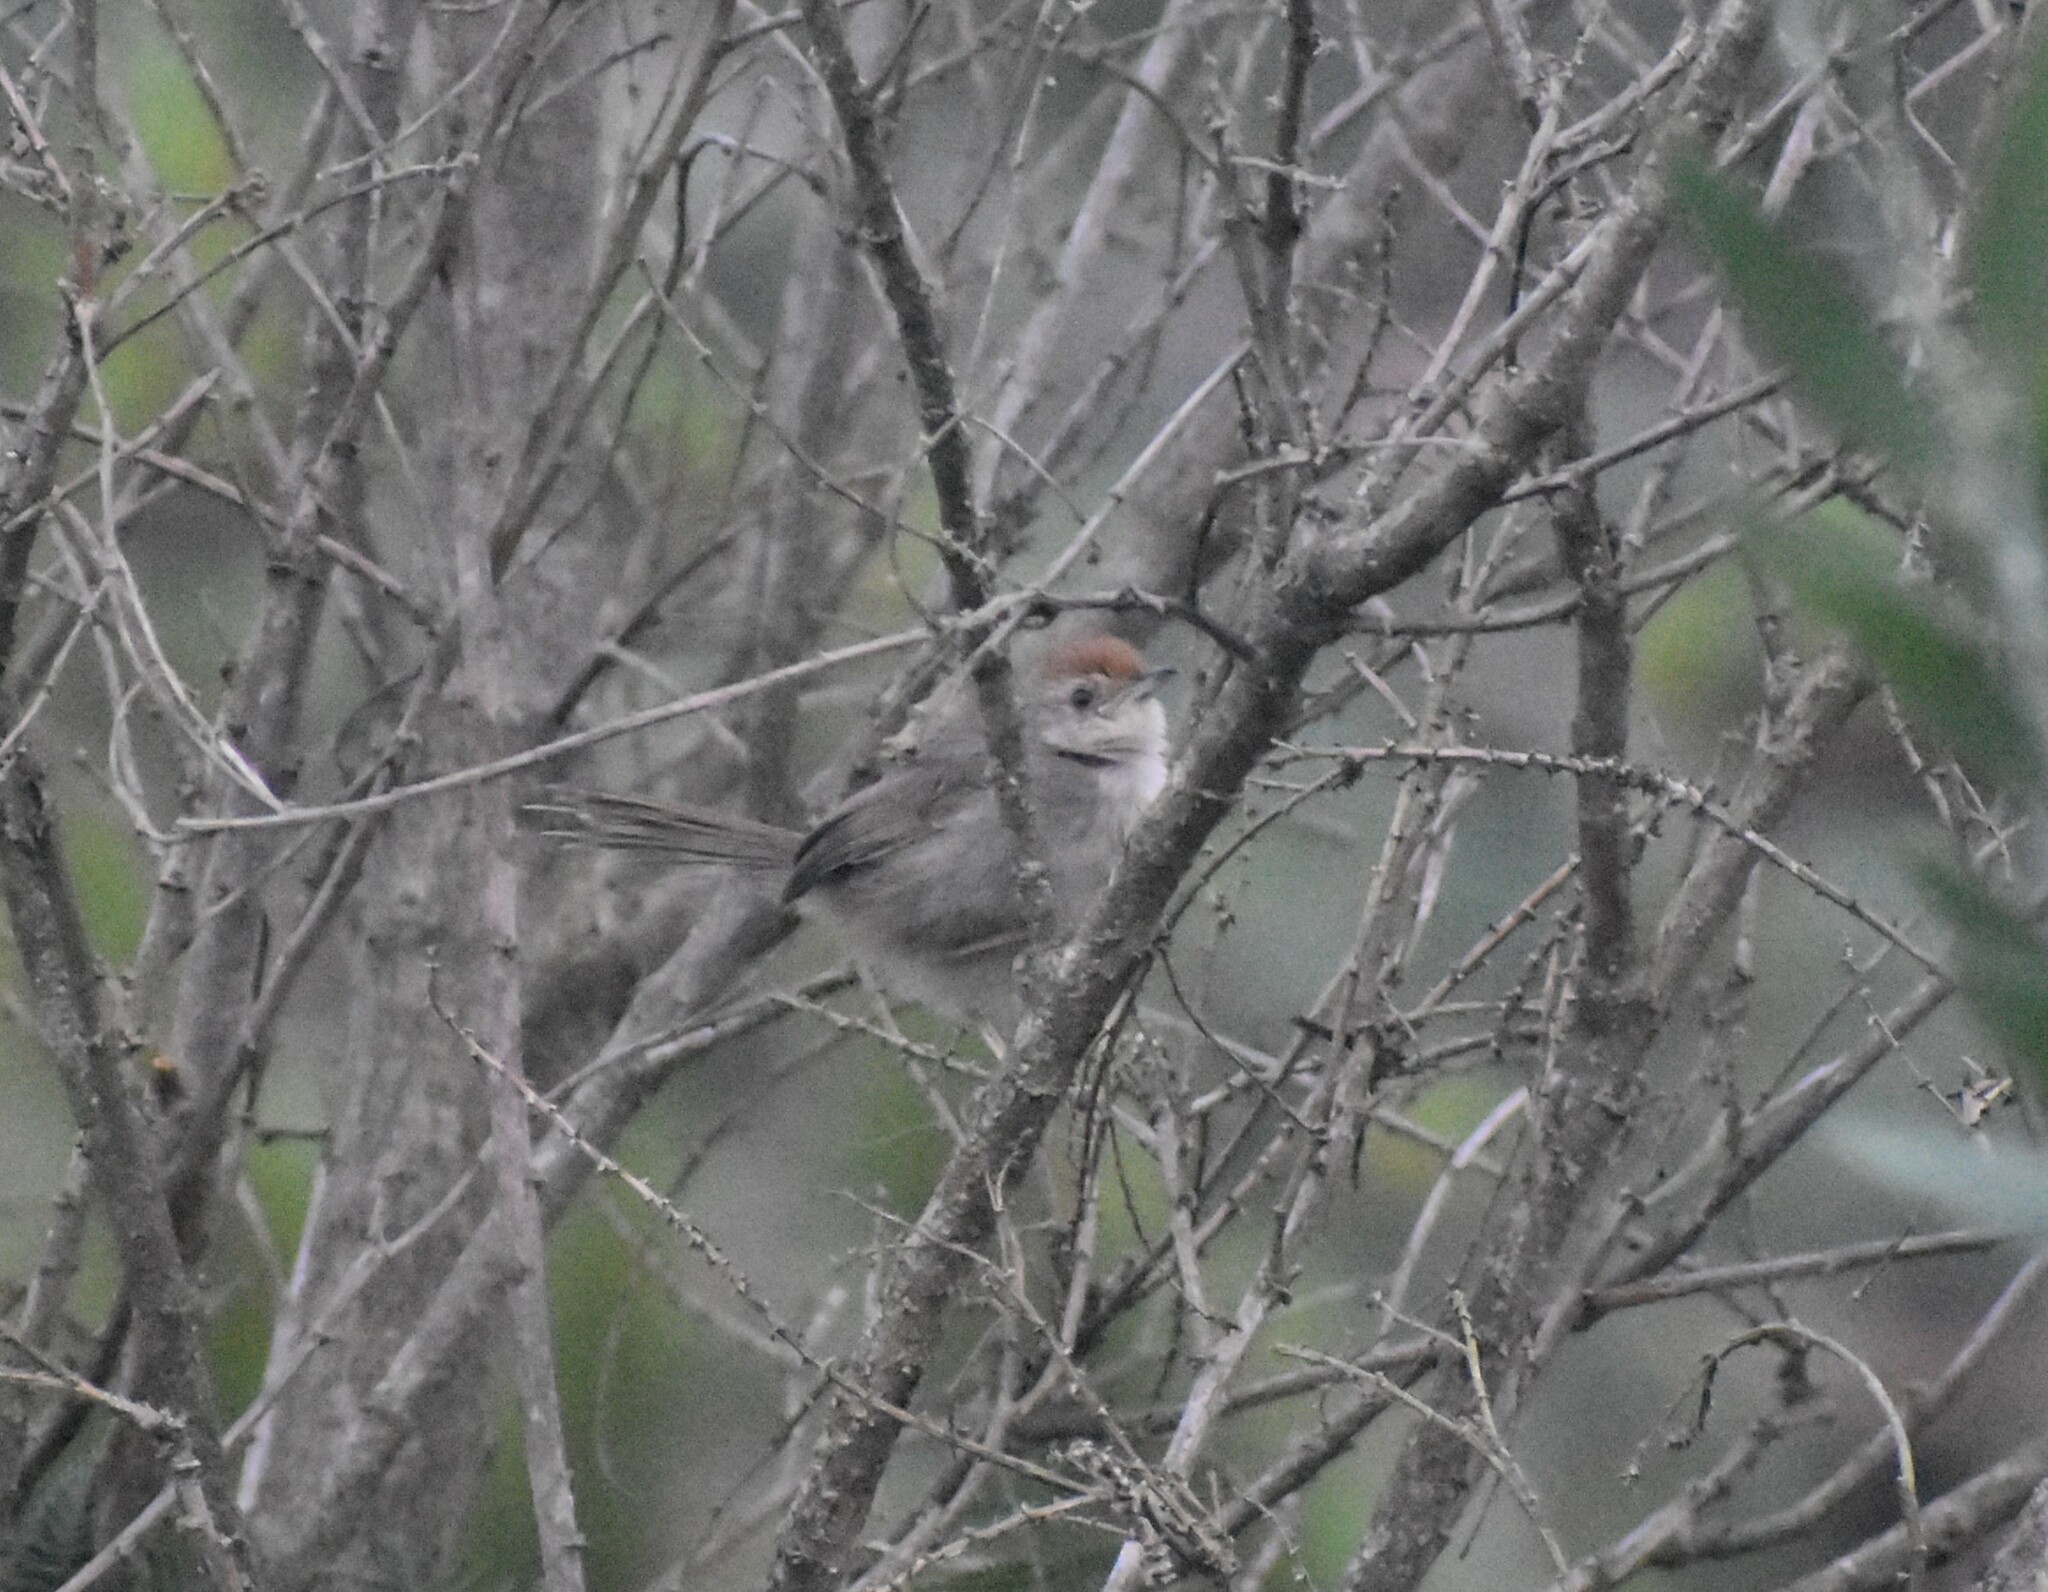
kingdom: Animalia
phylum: Chordata
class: Aves
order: Passeriformes
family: Cisticolidae
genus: Cisticola
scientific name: Cisticola aberrans
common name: Lazy cisticola
